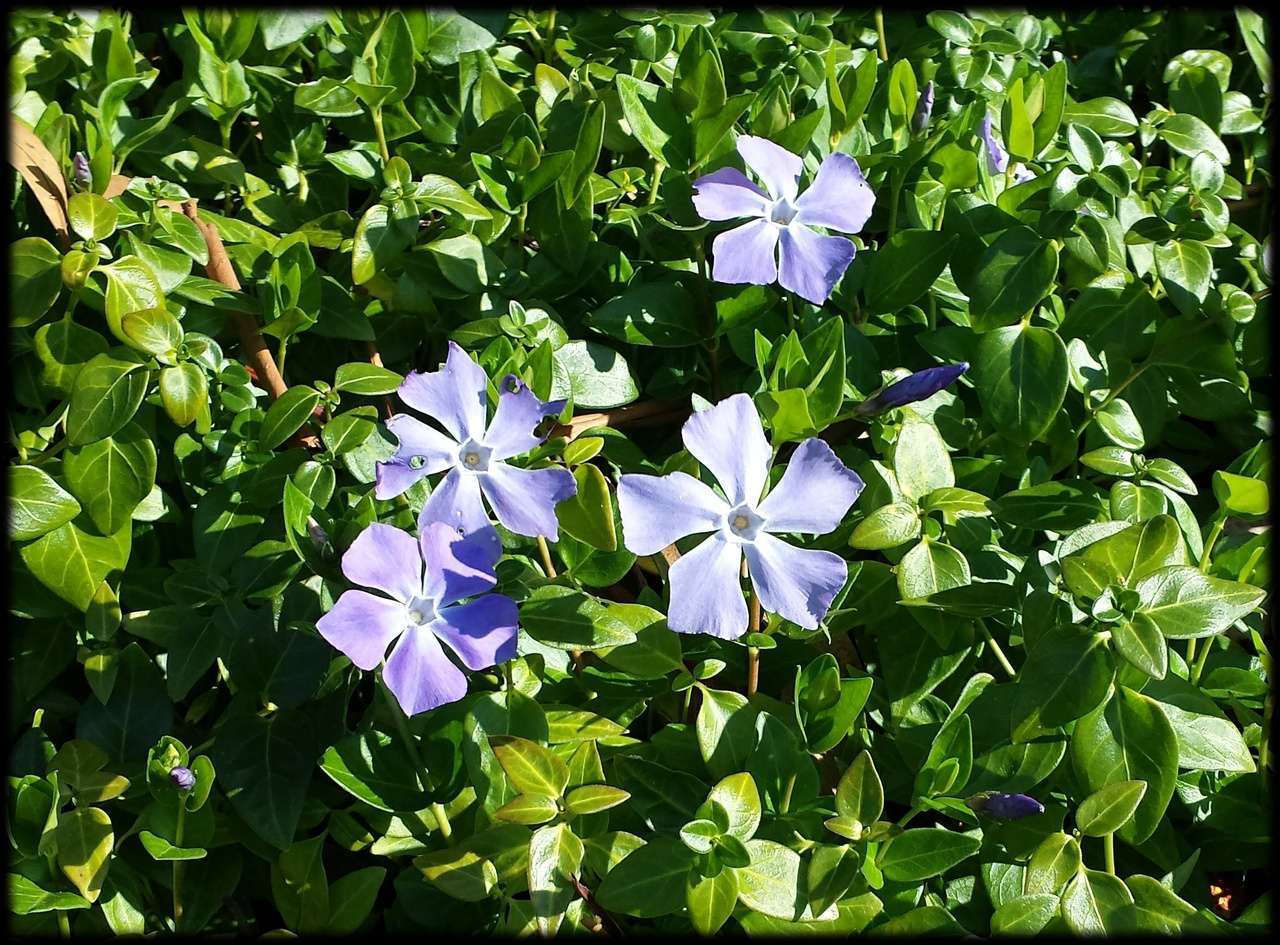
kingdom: Plantae
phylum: Tracheophyta
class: Magnoliopsida
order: Gentianales
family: Apocynaceae
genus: Vinca
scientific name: Vinca major
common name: Greater periwinkle
